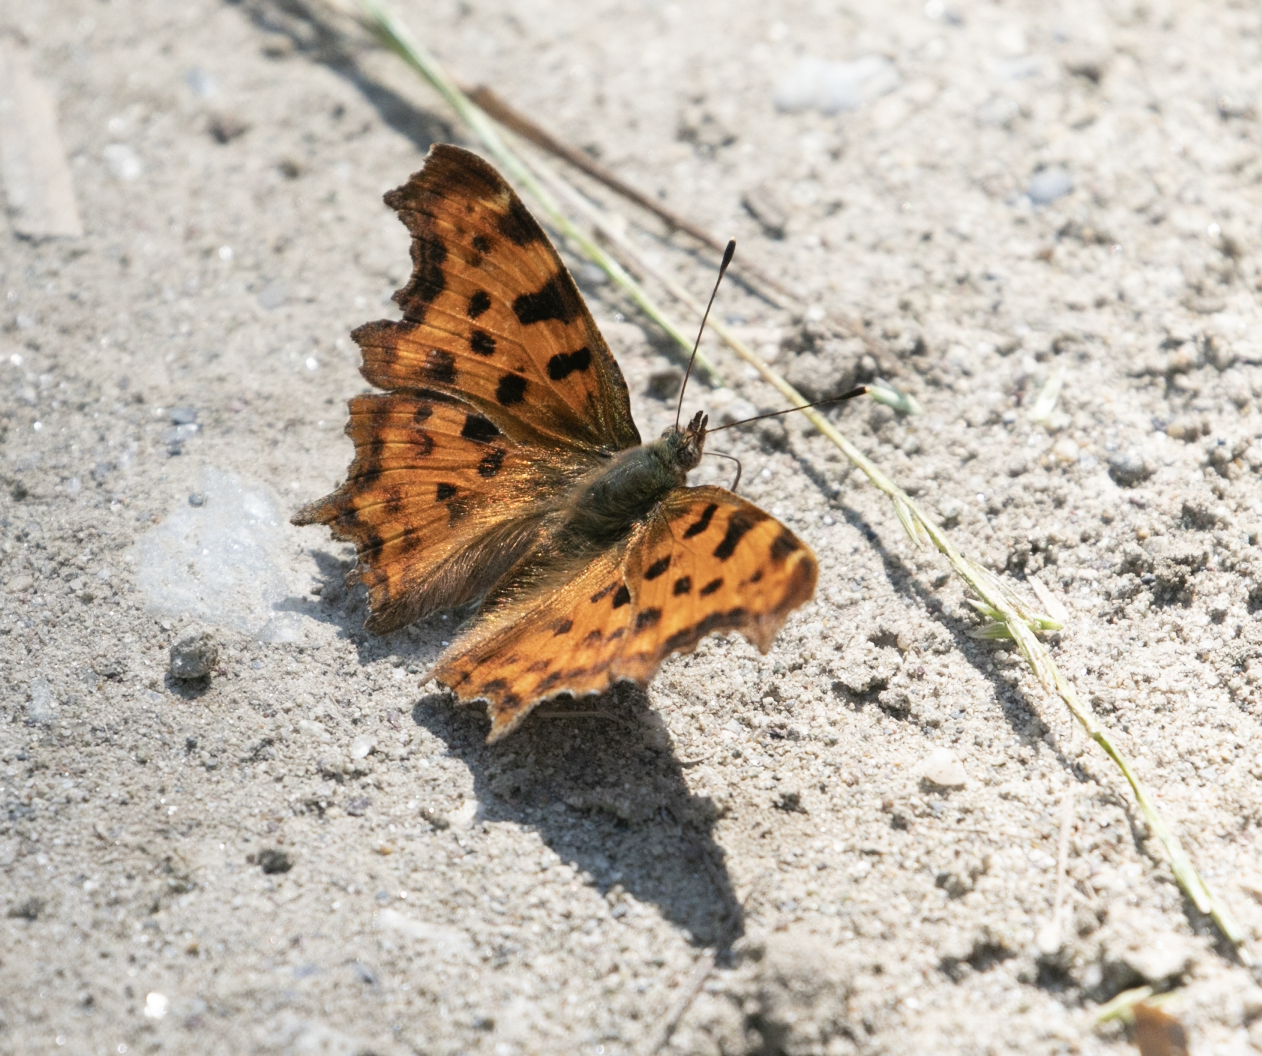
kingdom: Animalia
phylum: Arthropoda
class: Insecta
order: Lepidoptera
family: Nymphalidae
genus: Polygonia
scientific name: Polygonia c-album
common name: Comma
